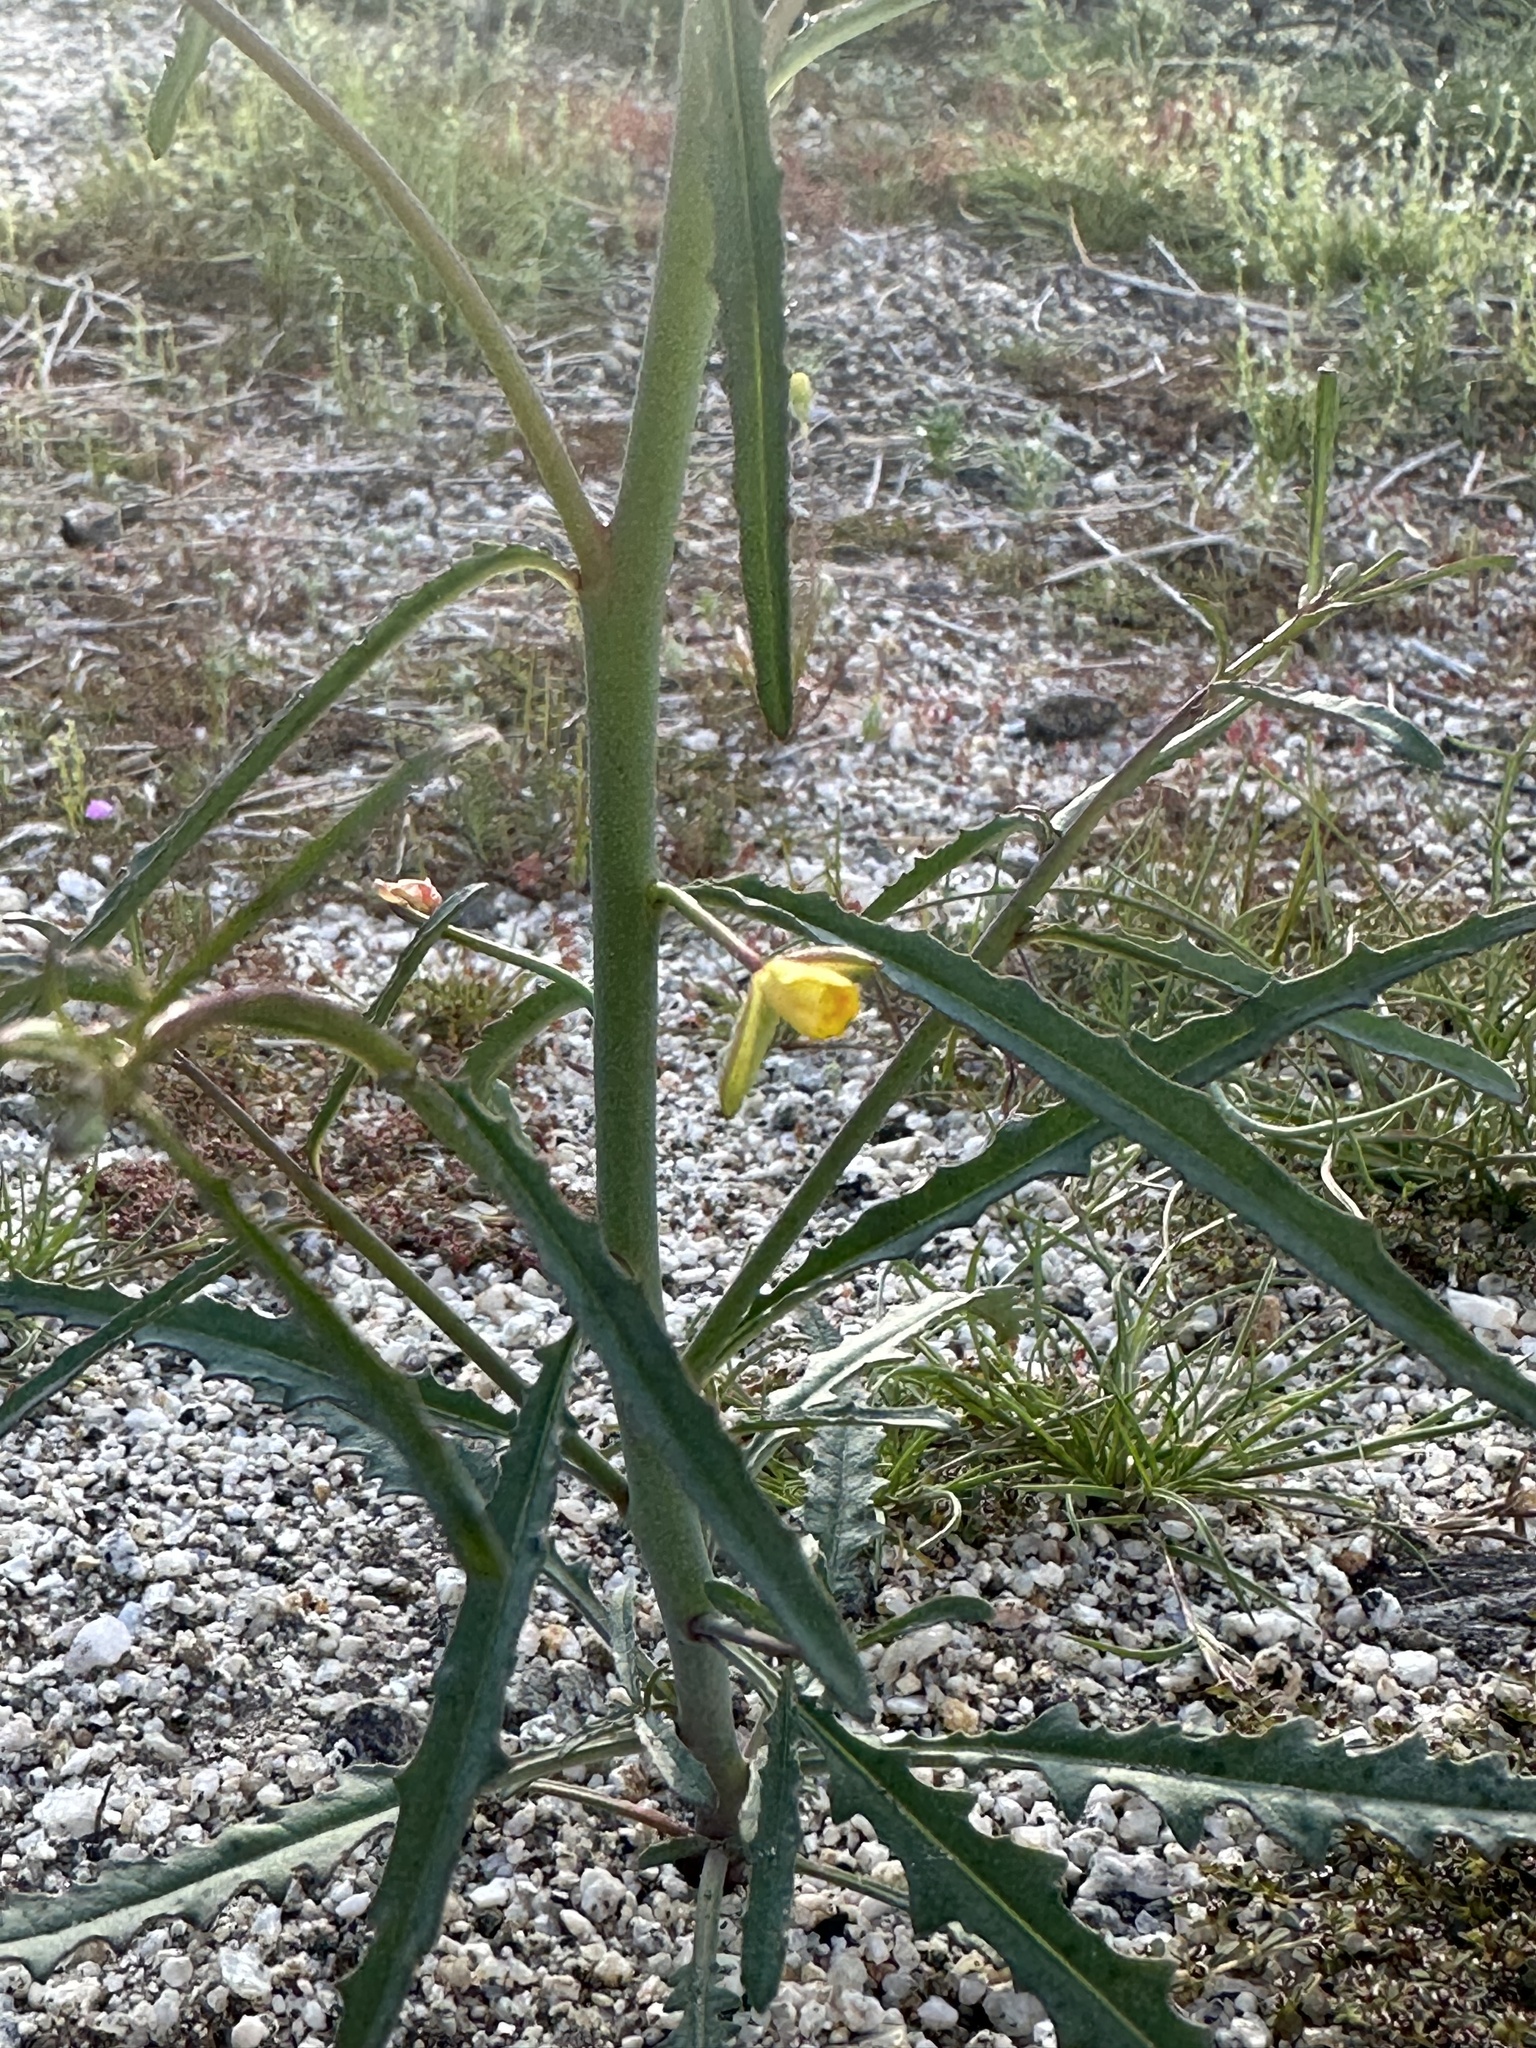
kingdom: Plantae
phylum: Tracheophyta
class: Magnoliopsida
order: Myrtales
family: Onagraceae
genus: Eulobus
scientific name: Eulobus californicus
